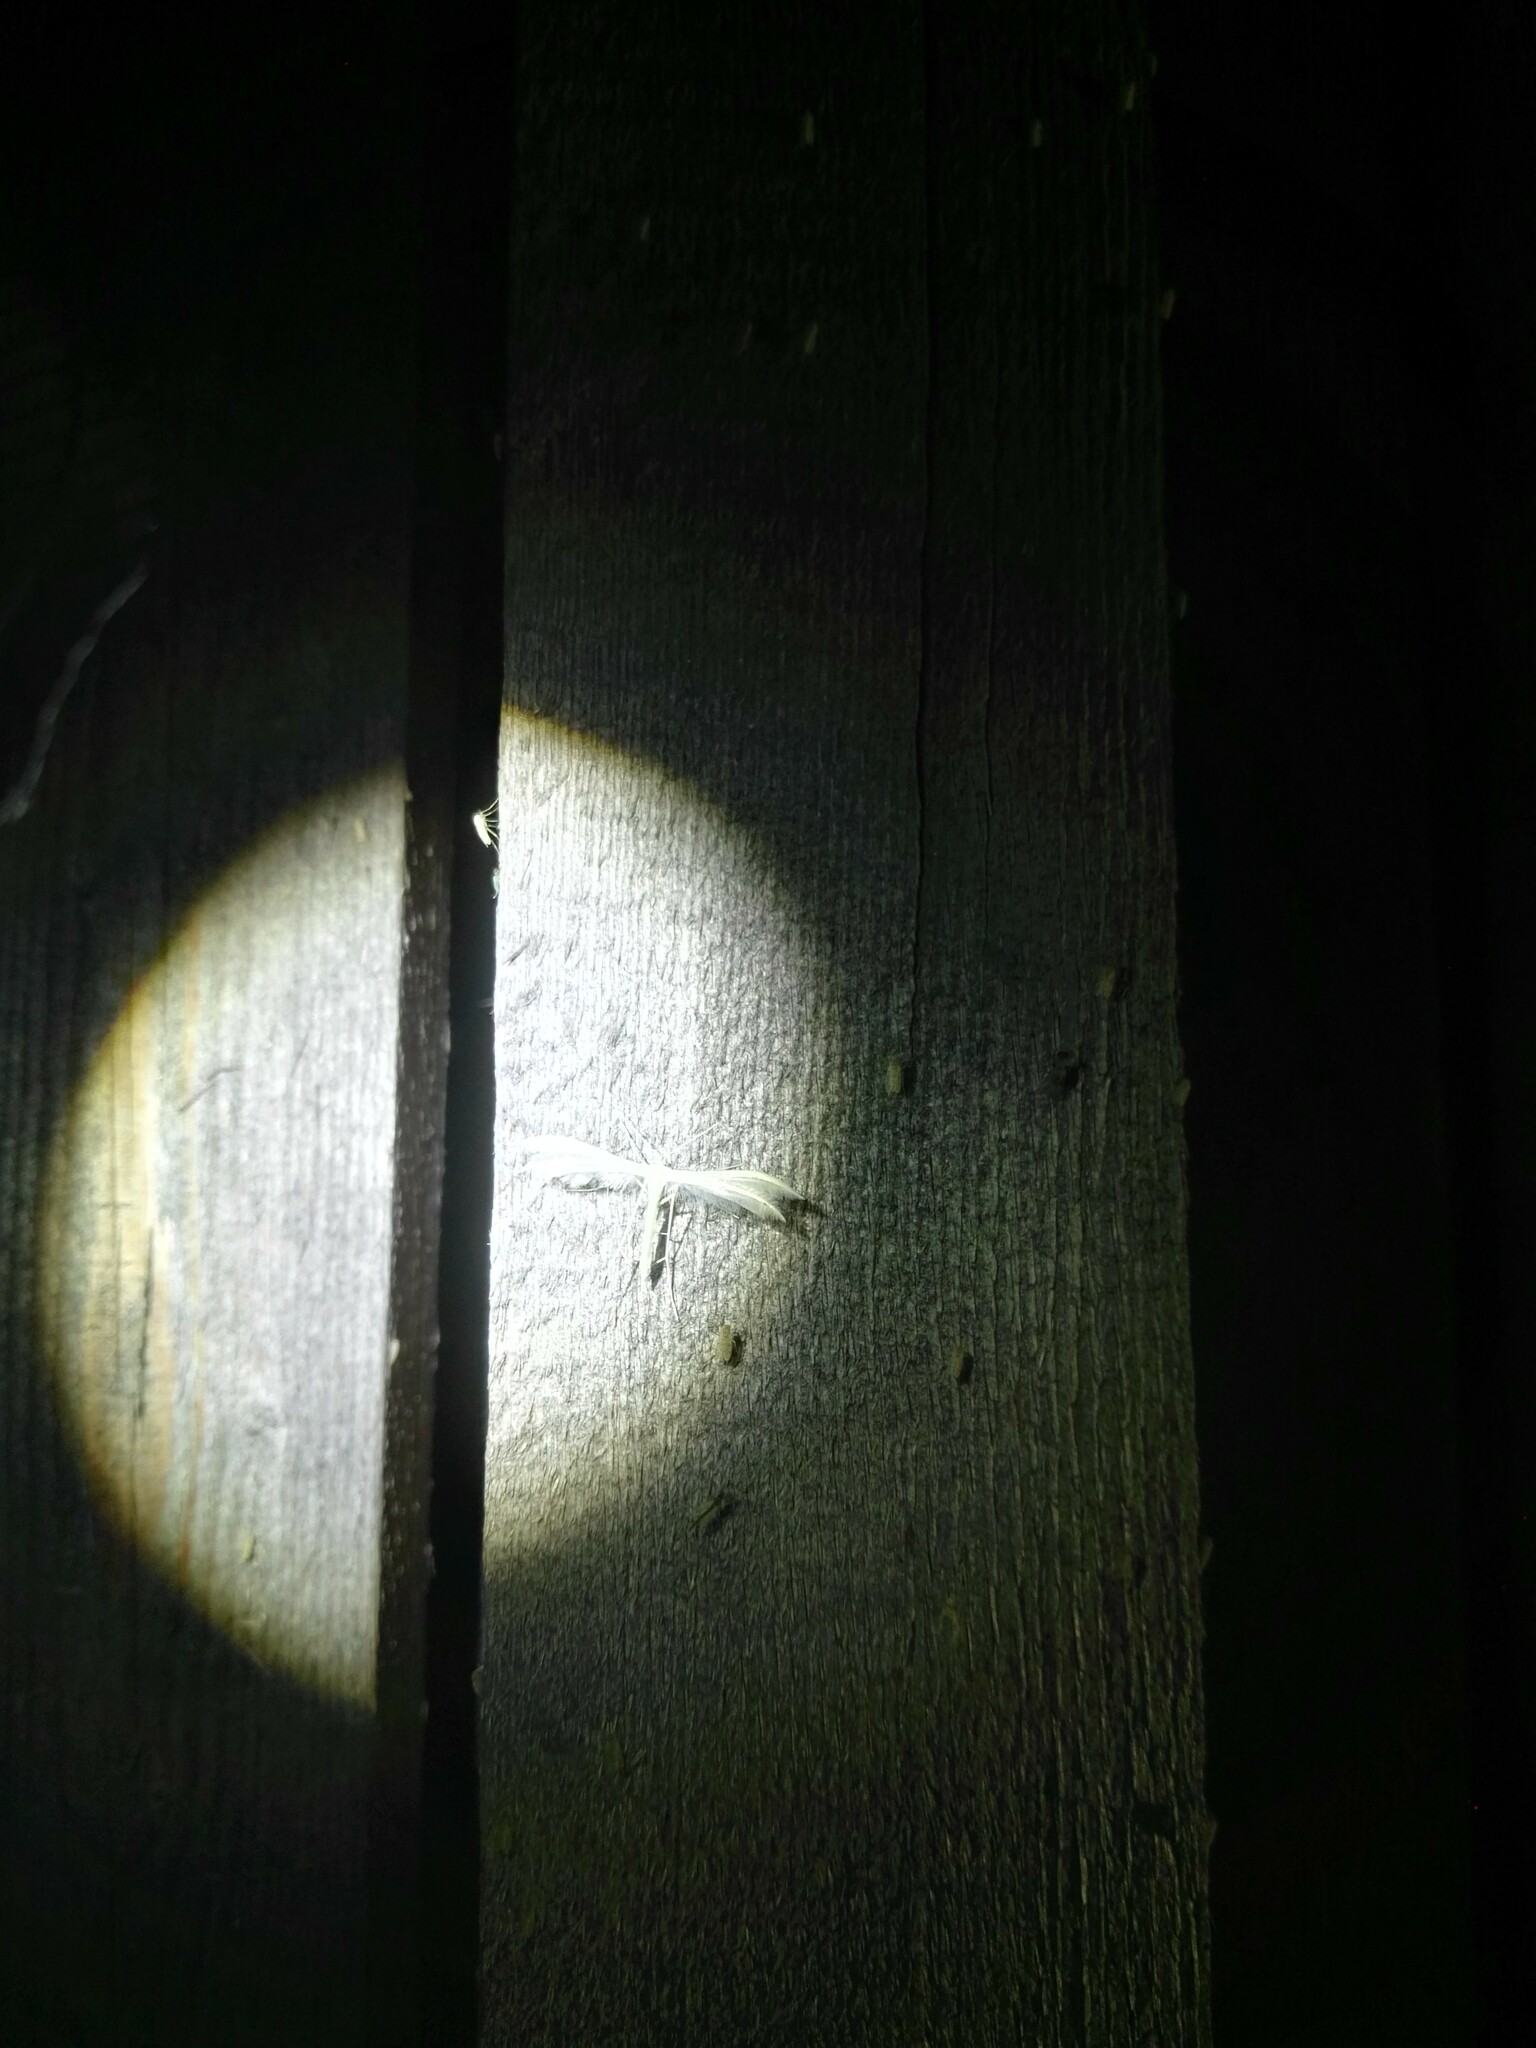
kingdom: Animalia
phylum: Arthropoda
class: Insecta
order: Lepidoptera
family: Pterophoridae
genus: Pterophorus
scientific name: Pterophorus pentadactyla
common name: White plume moth
